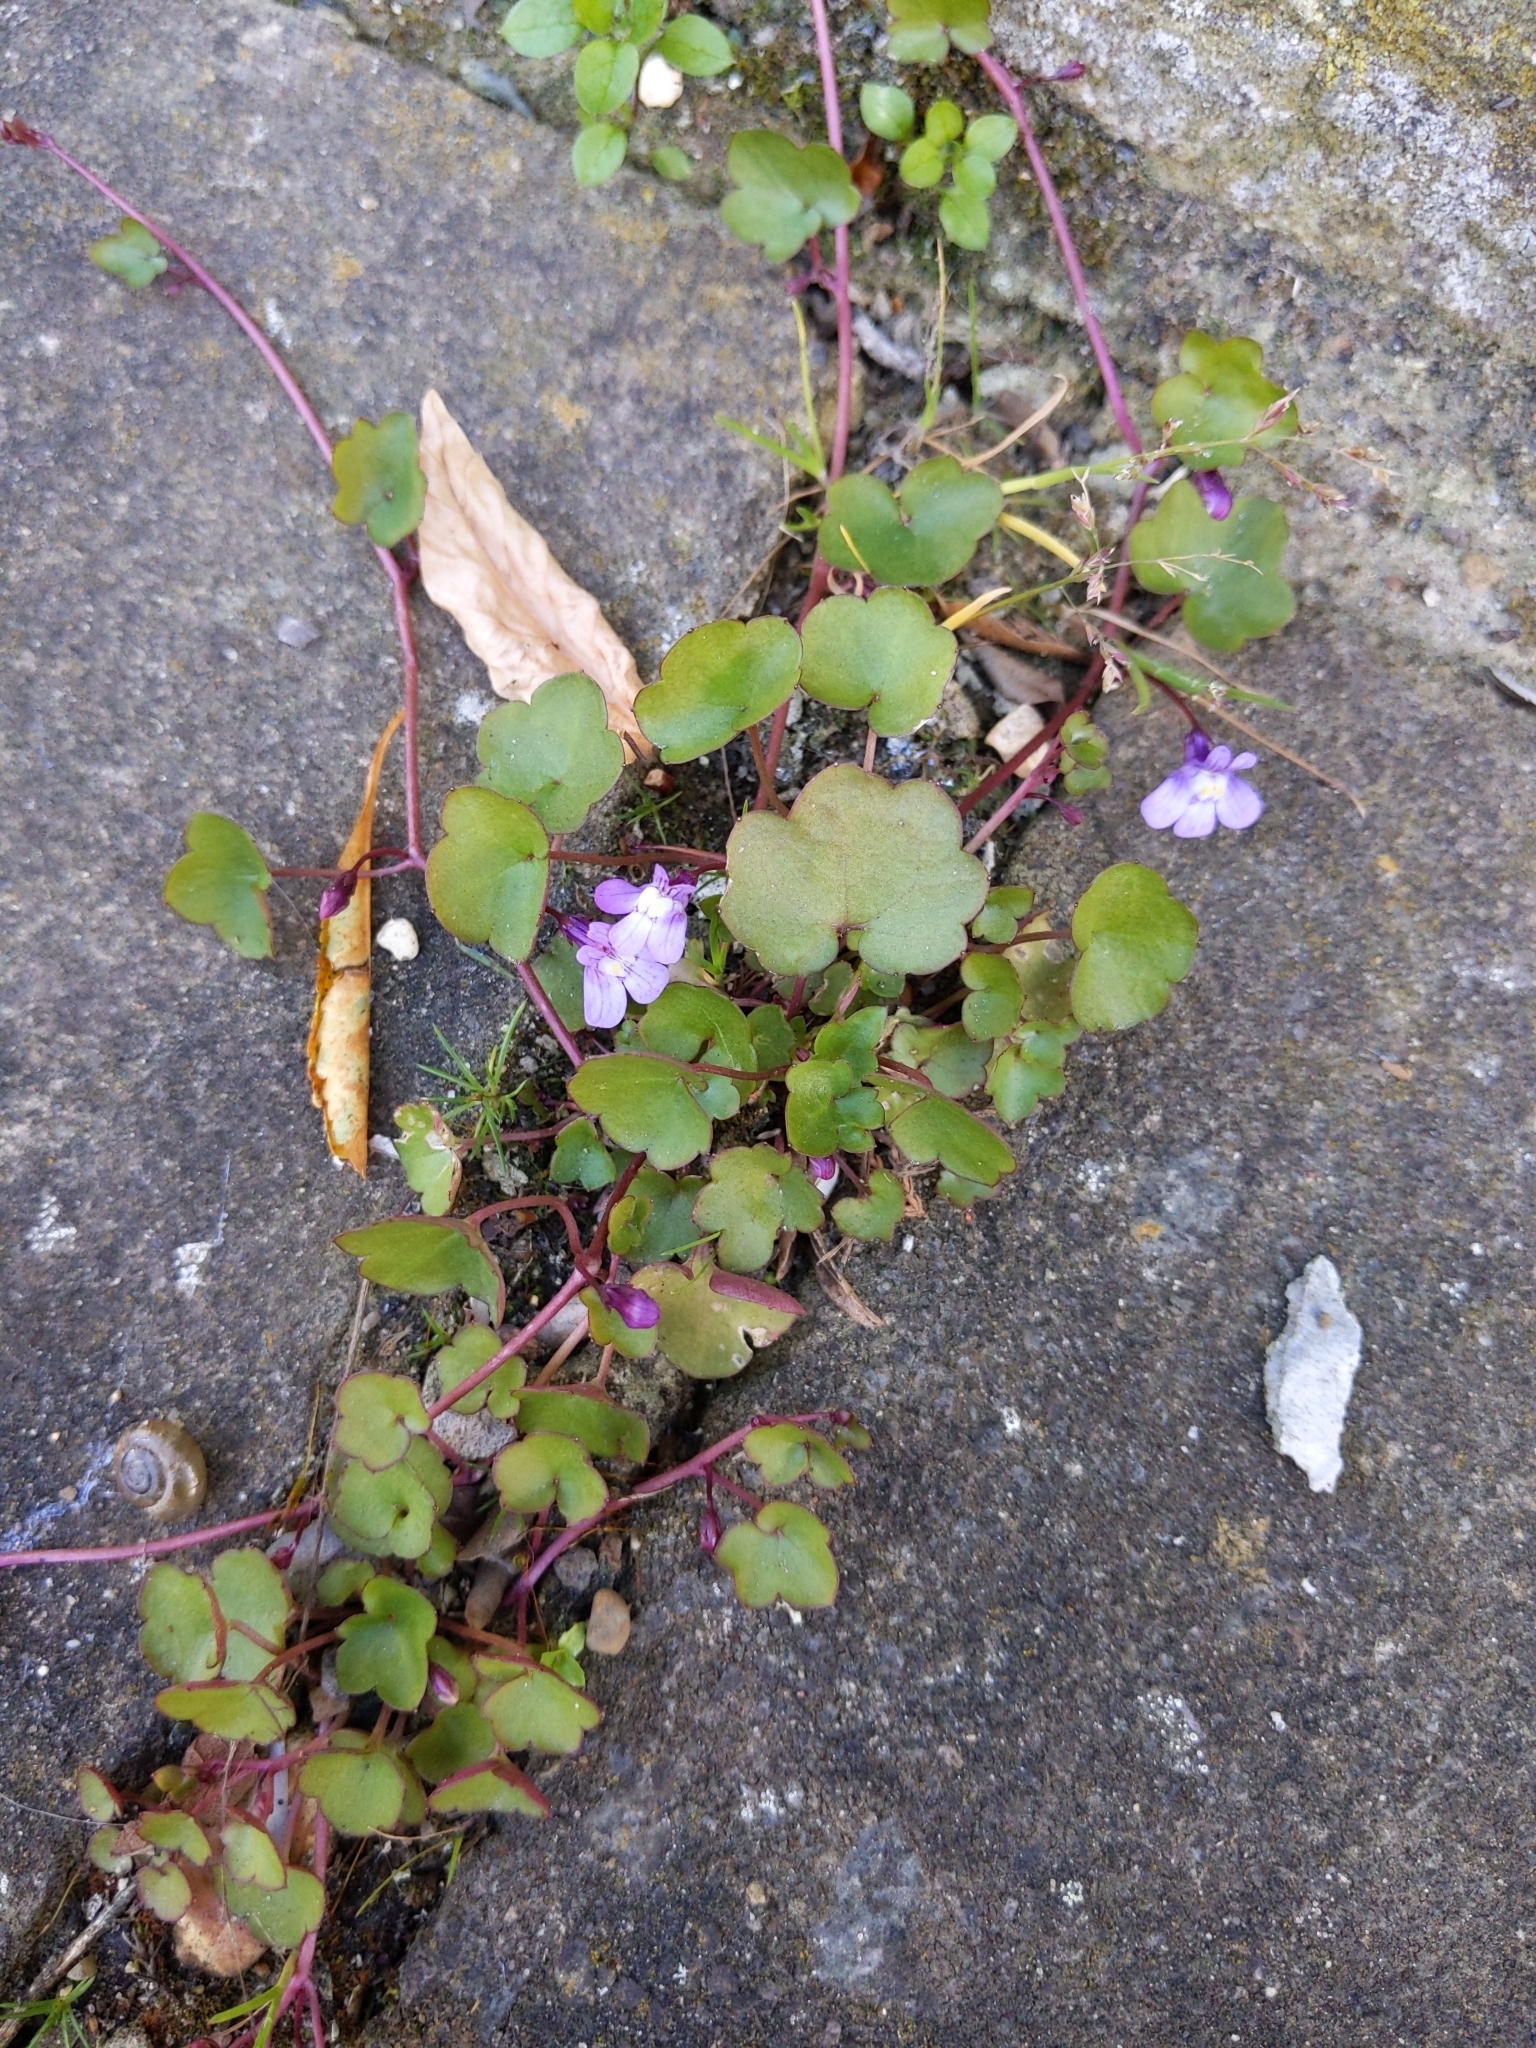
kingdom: Plantae
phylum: Tracheophyta
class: Magnoliopsida
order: Lamiales
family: Plantaginaceae
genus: Cymbalaria
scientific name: Cymbalaria muralis
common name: Ivy-leaved toadflax
